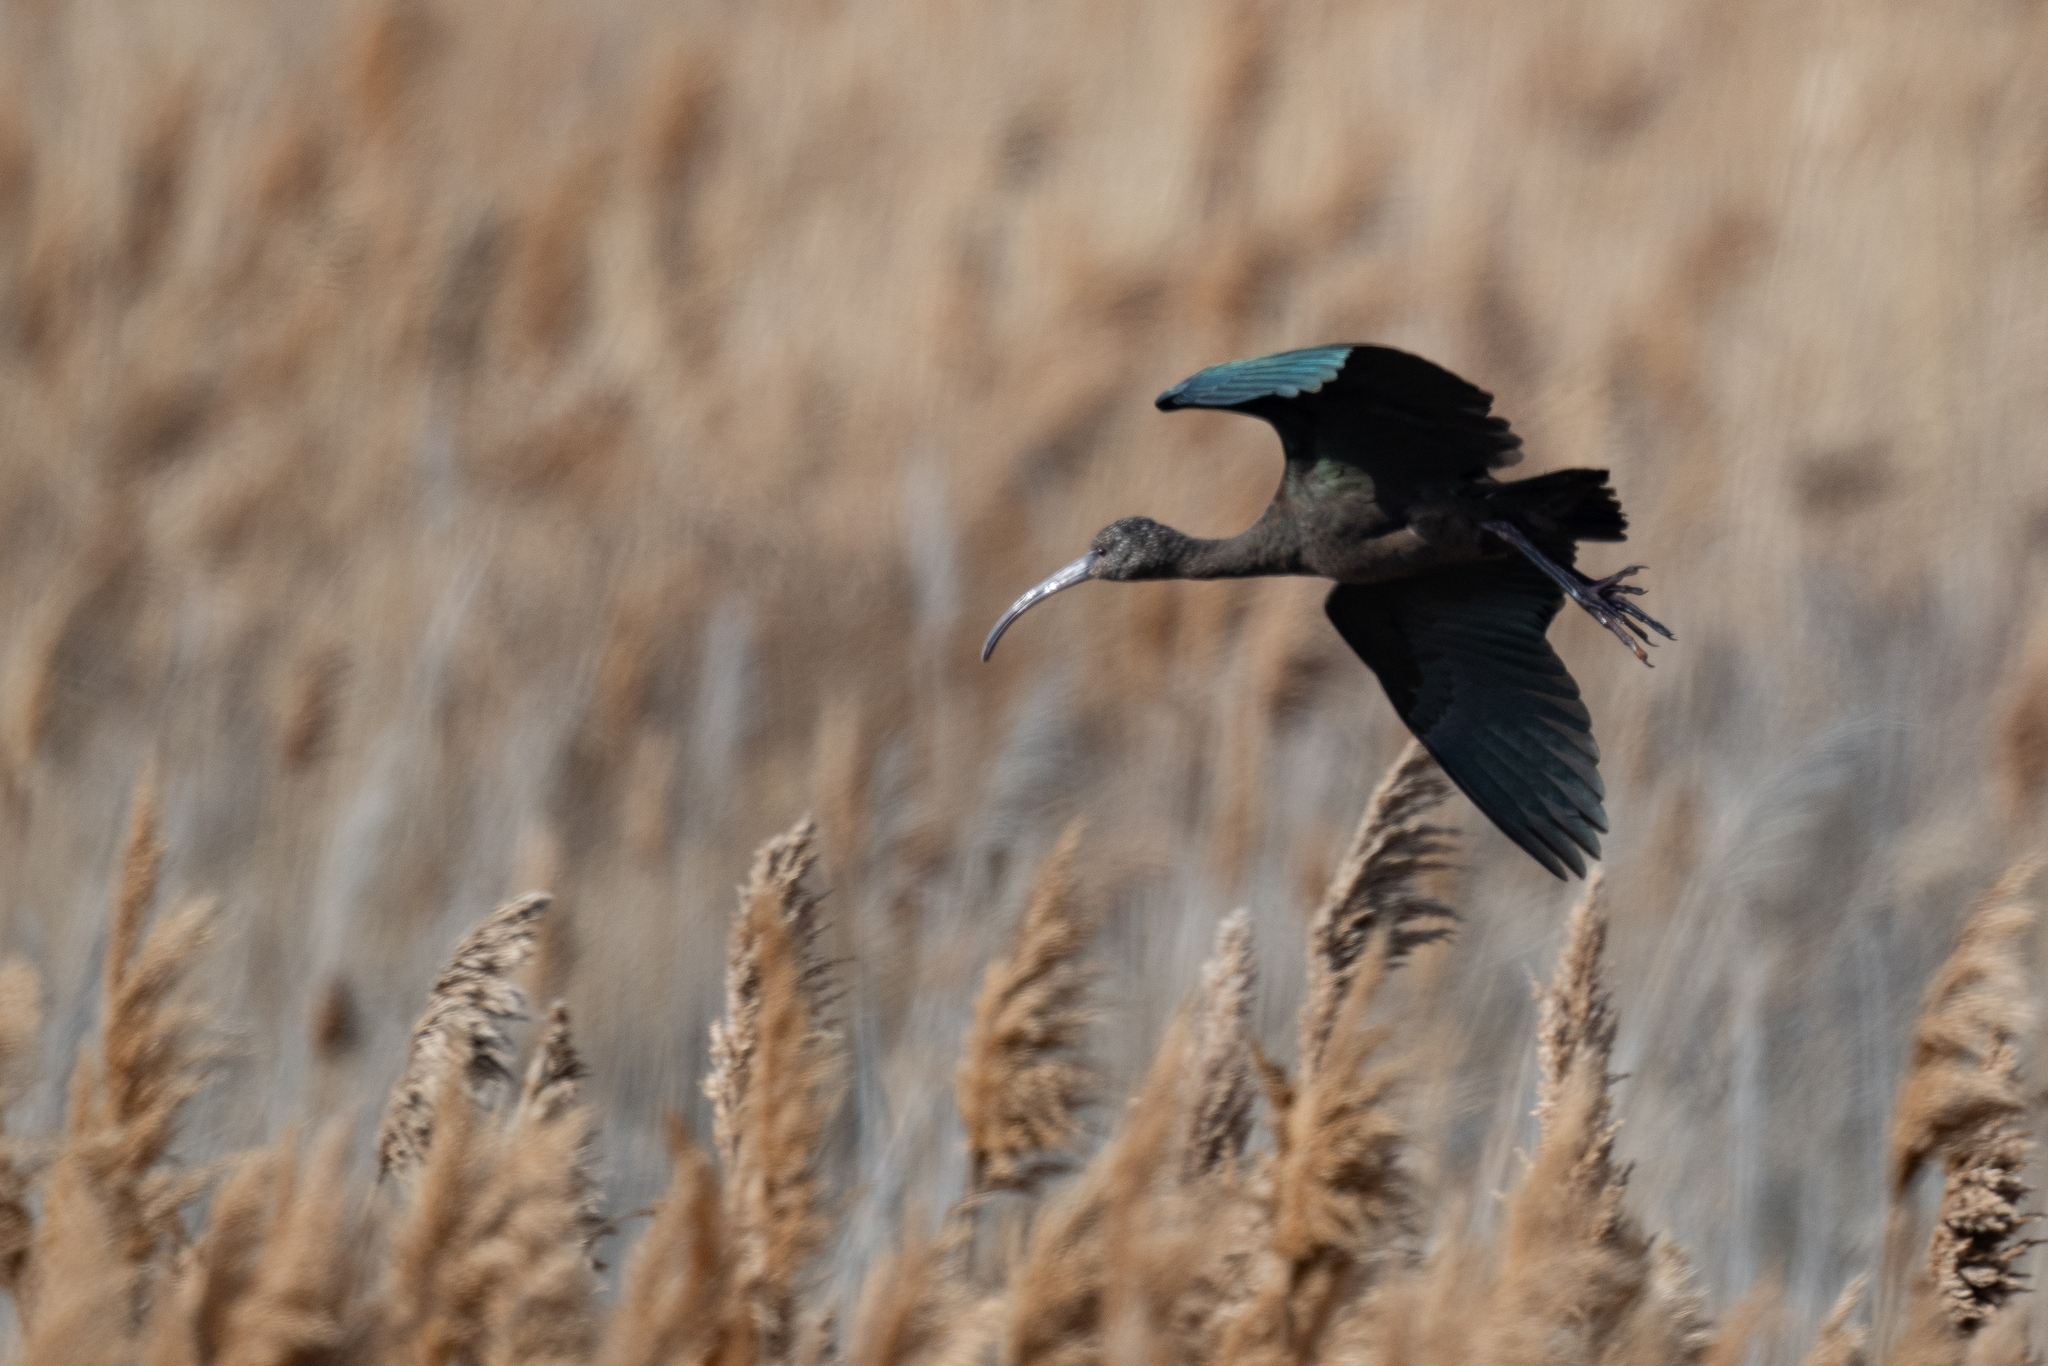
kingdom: Animalia
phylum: Chordata
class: Aves
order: Pelecaniformes
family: Threskiornithidae
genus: Plegadis
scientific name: Plegadis chihi
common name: White-faced ibis
